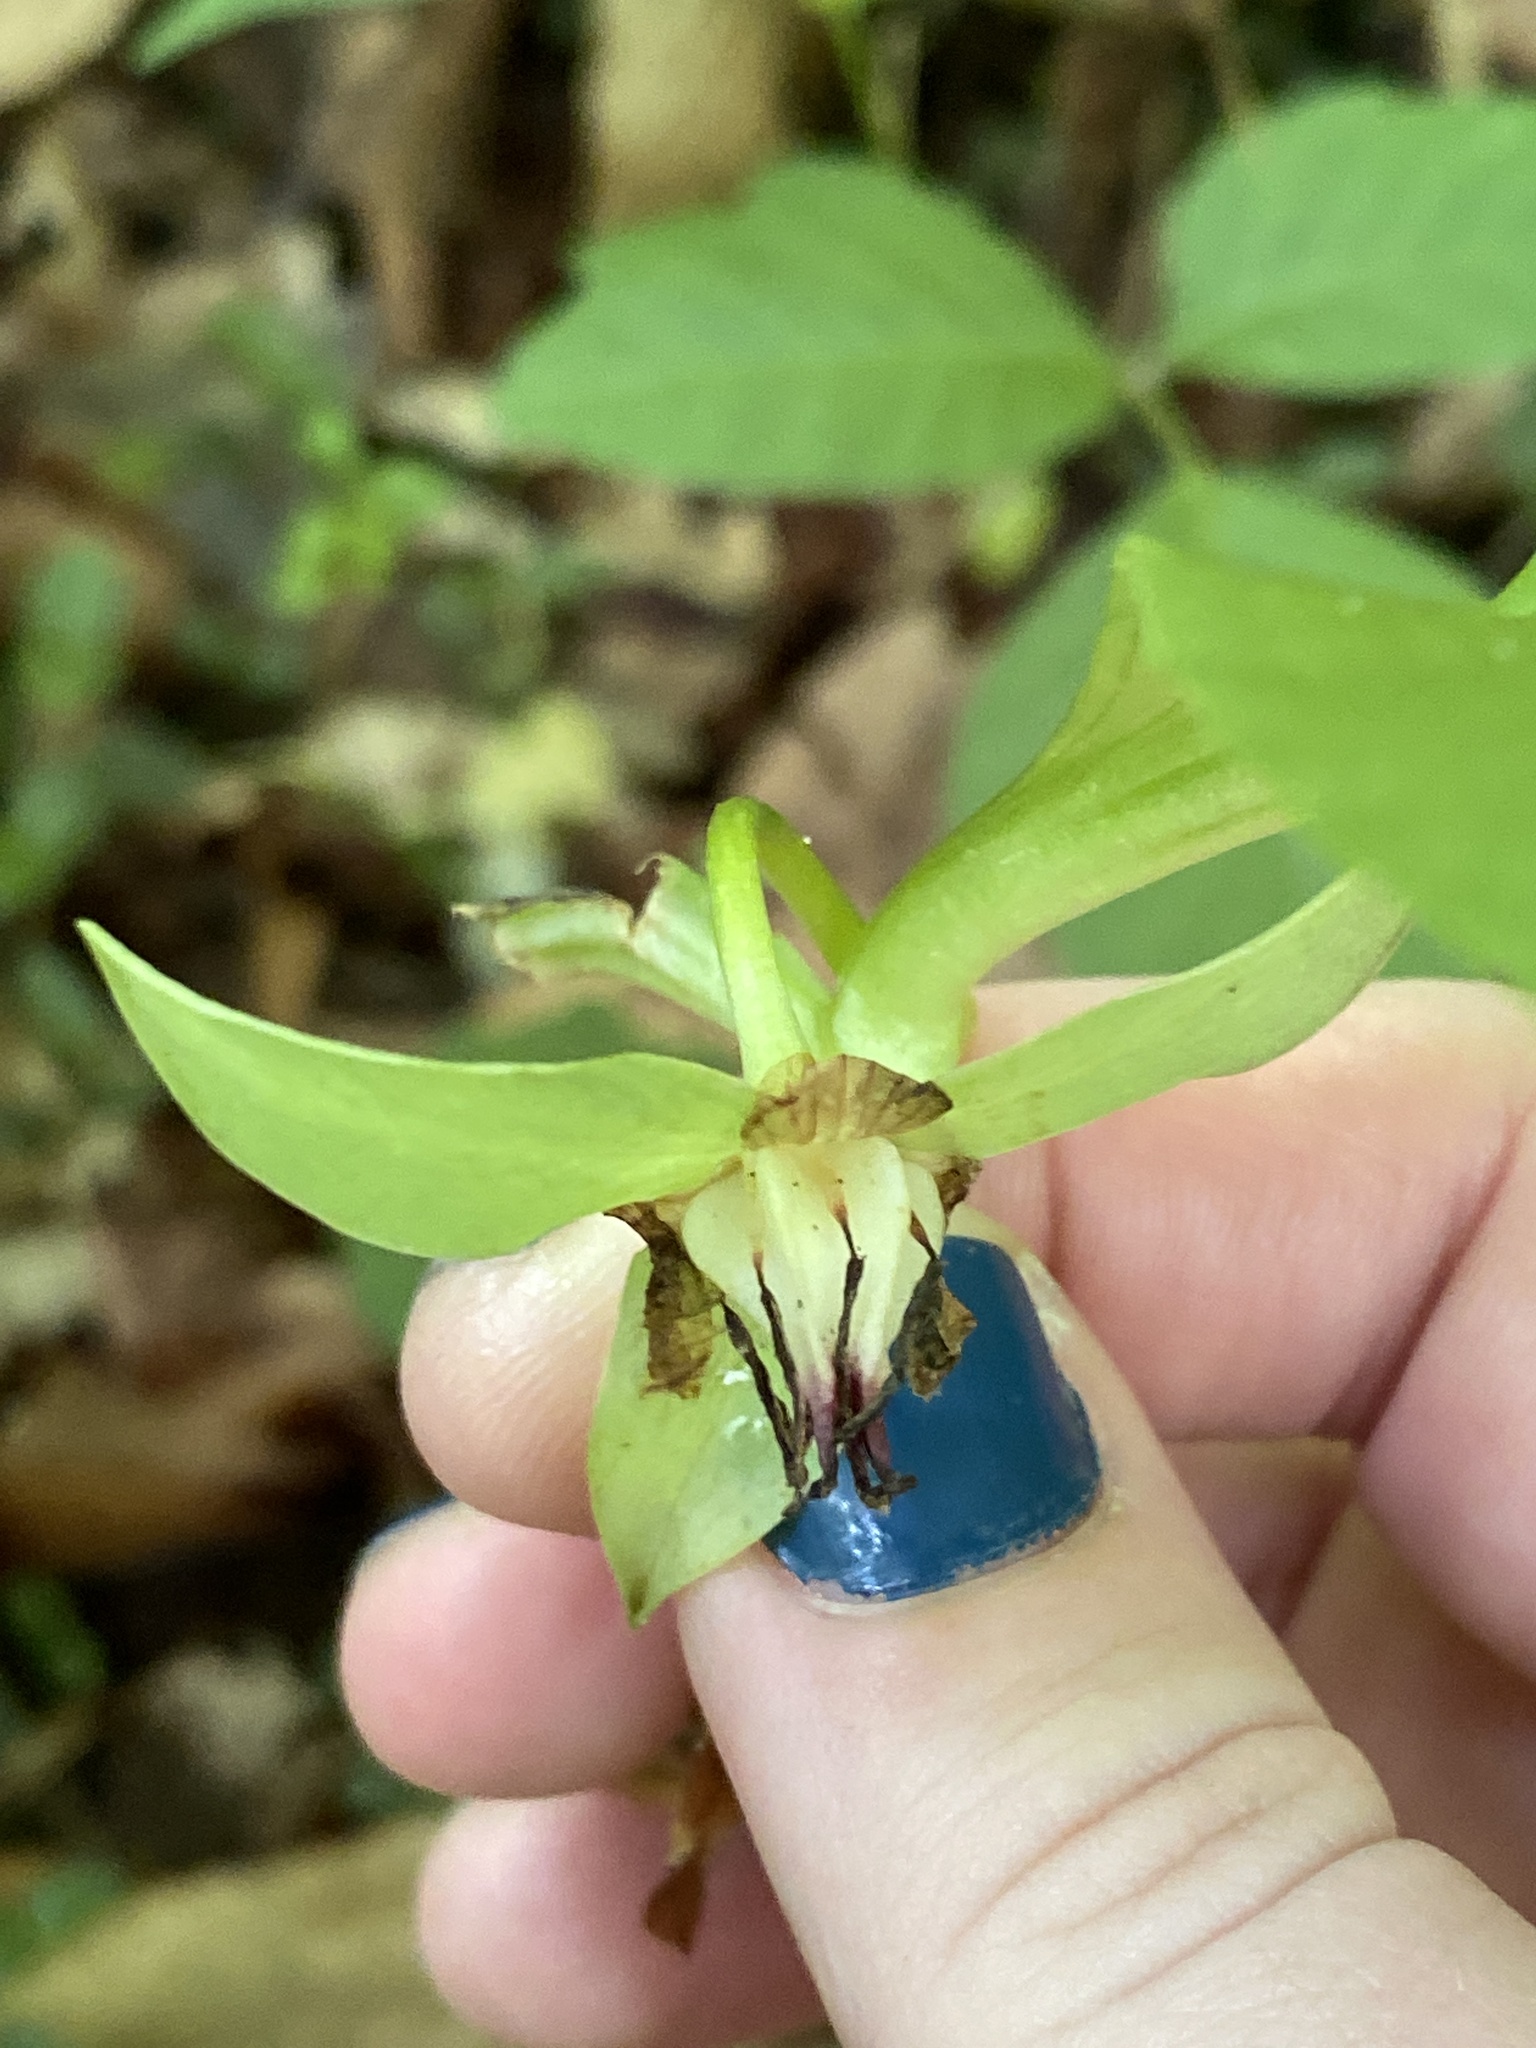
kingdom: Plantae
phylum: Tracheophyta
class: Liliopsida
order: Liliales
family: Melanthiaceae
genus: Trillium
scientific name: Trillium rugelii
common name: Ill-scented trillium
